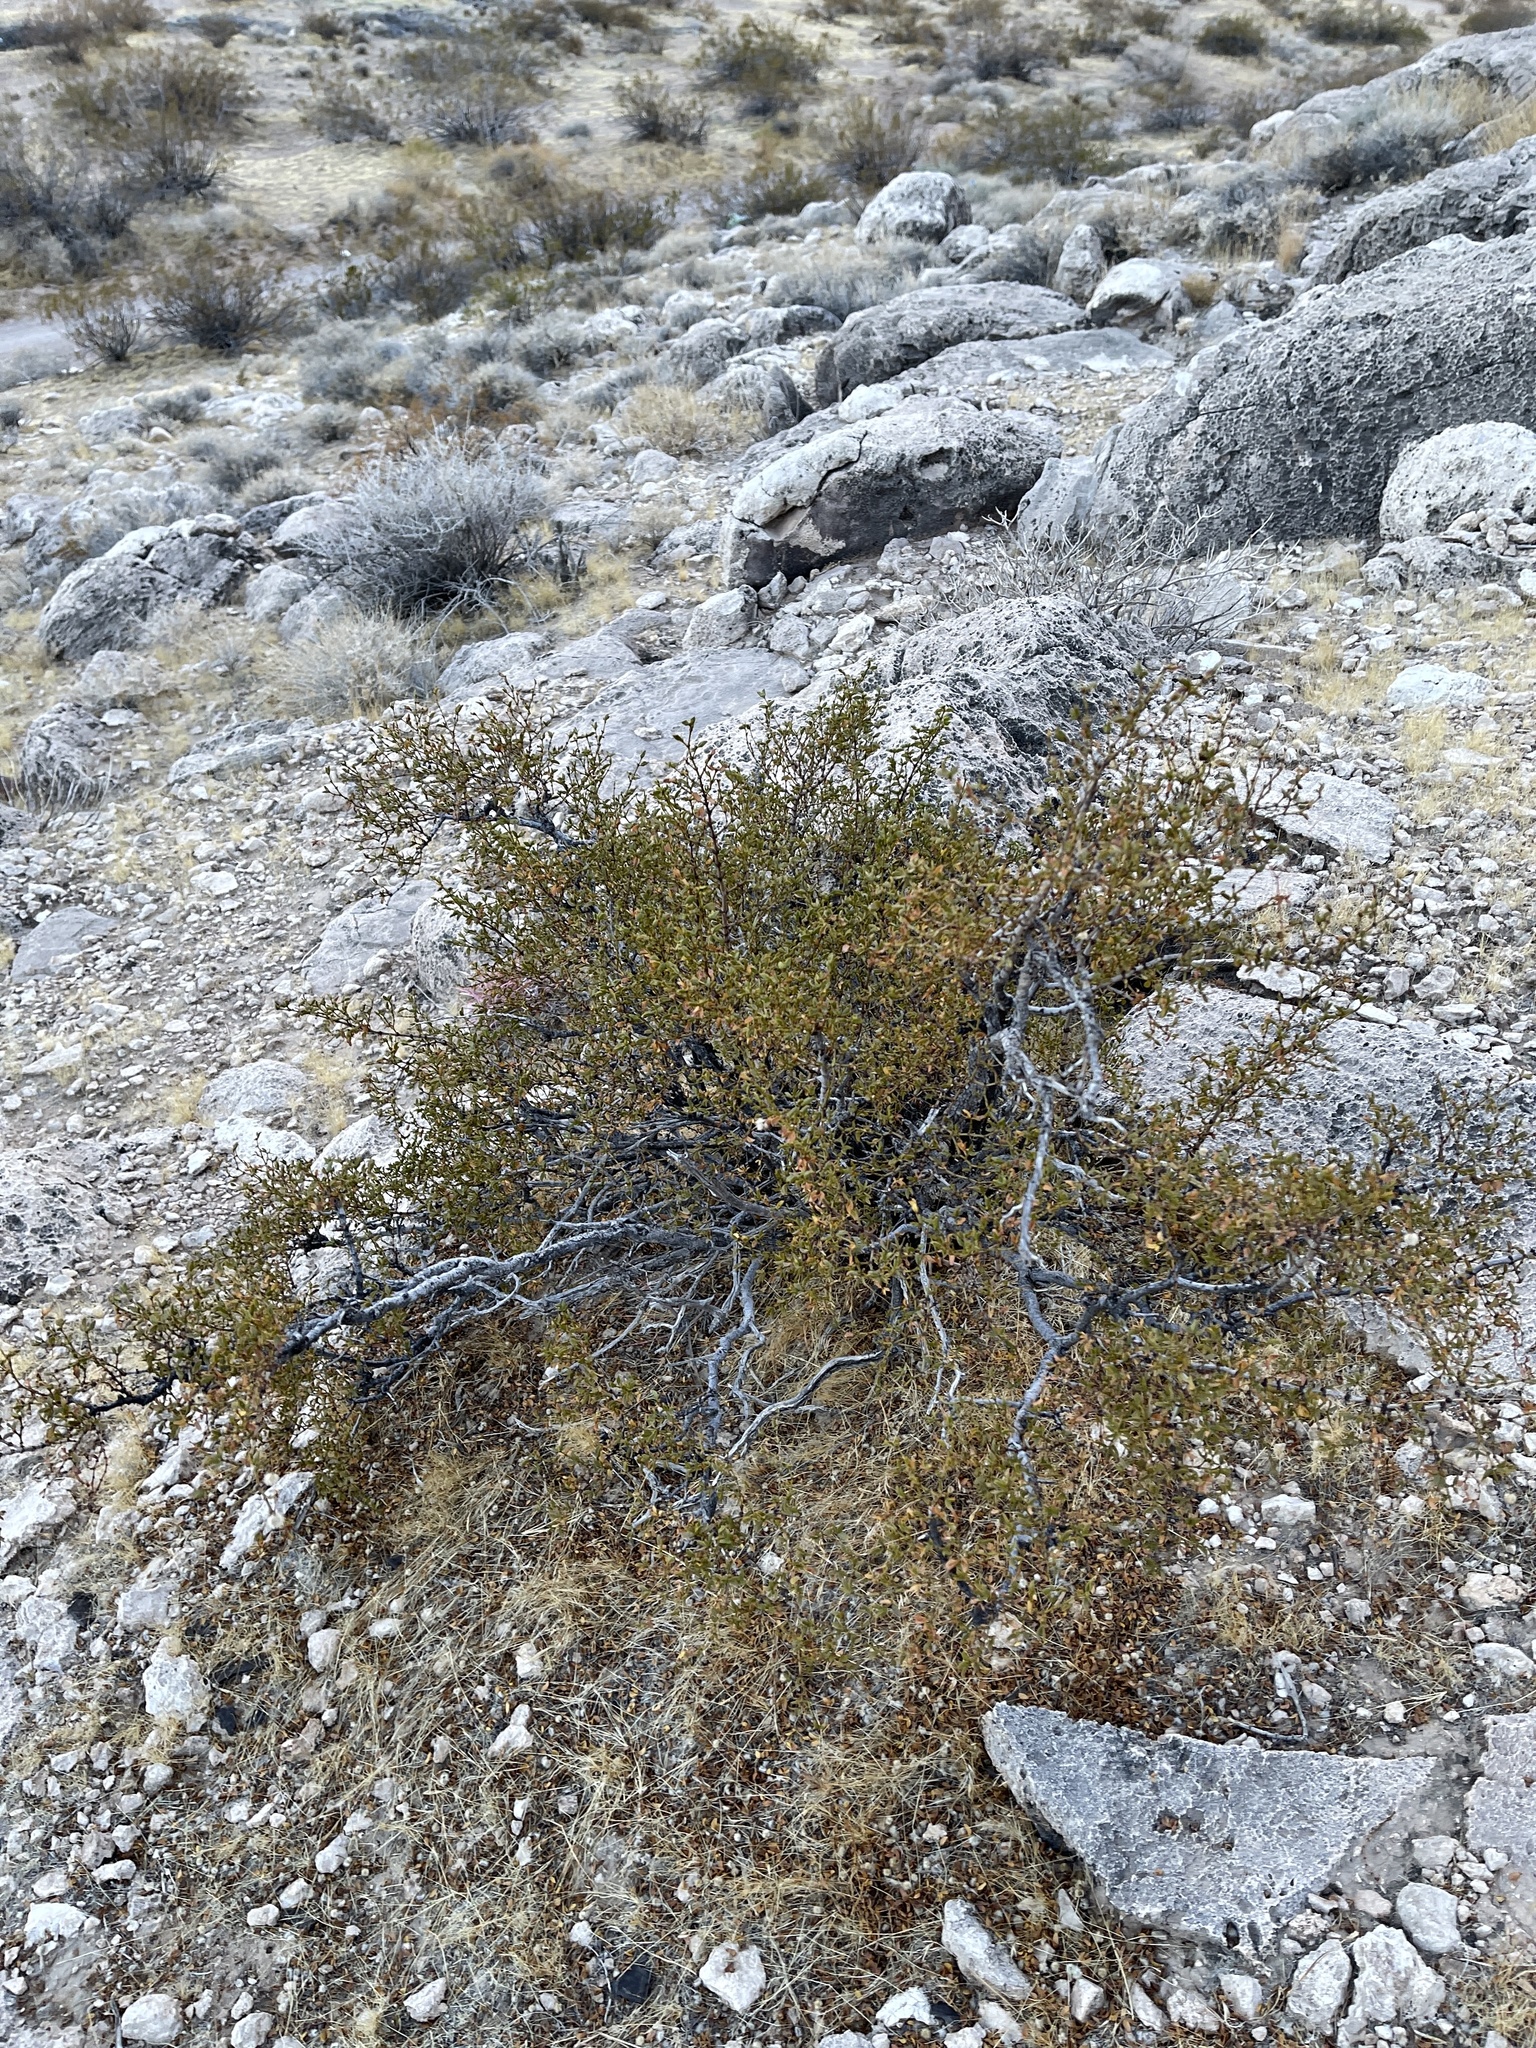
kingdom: Plantae
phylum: Tracheophyta
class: Magnoliopsida
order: Zygophyllales
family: Zygophyllaceae
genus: Larrea
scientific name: Larrea tridentata
